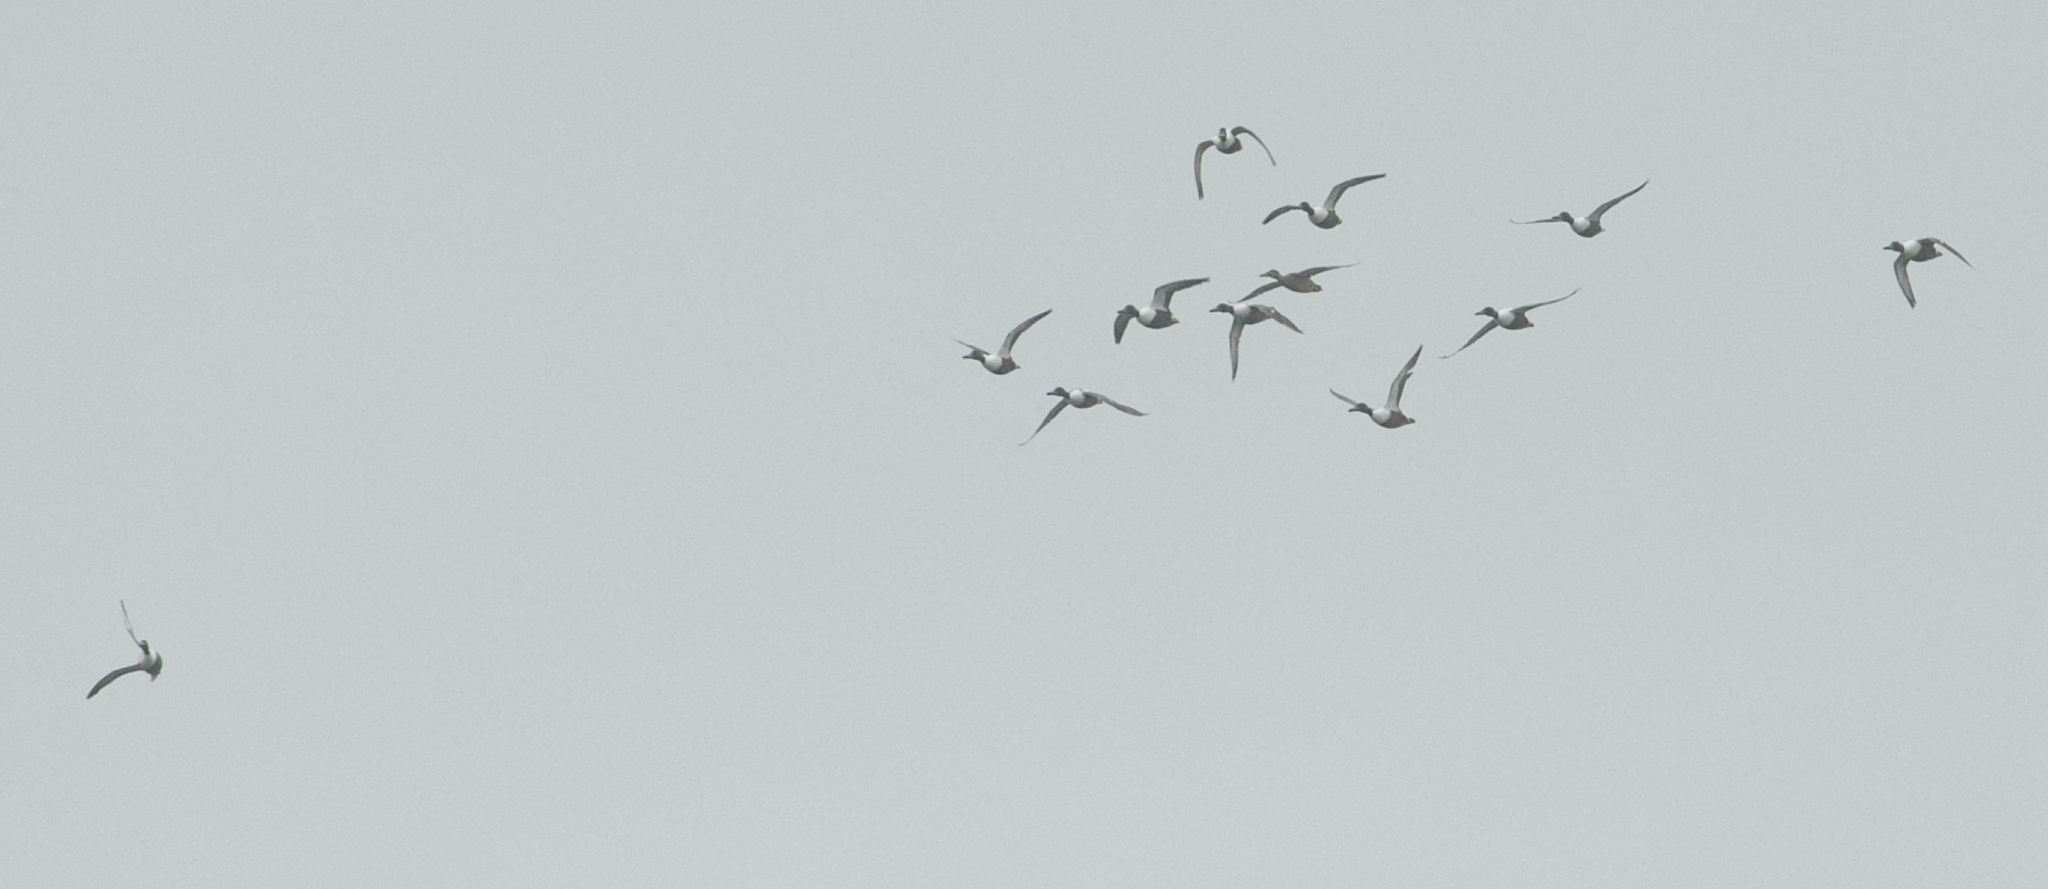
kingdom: Animalia
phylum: Chordata
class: Aves
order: Anseriformes
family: Anatidae
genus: Spatula
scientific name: Spatula clypeata
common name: Northern shoveler
